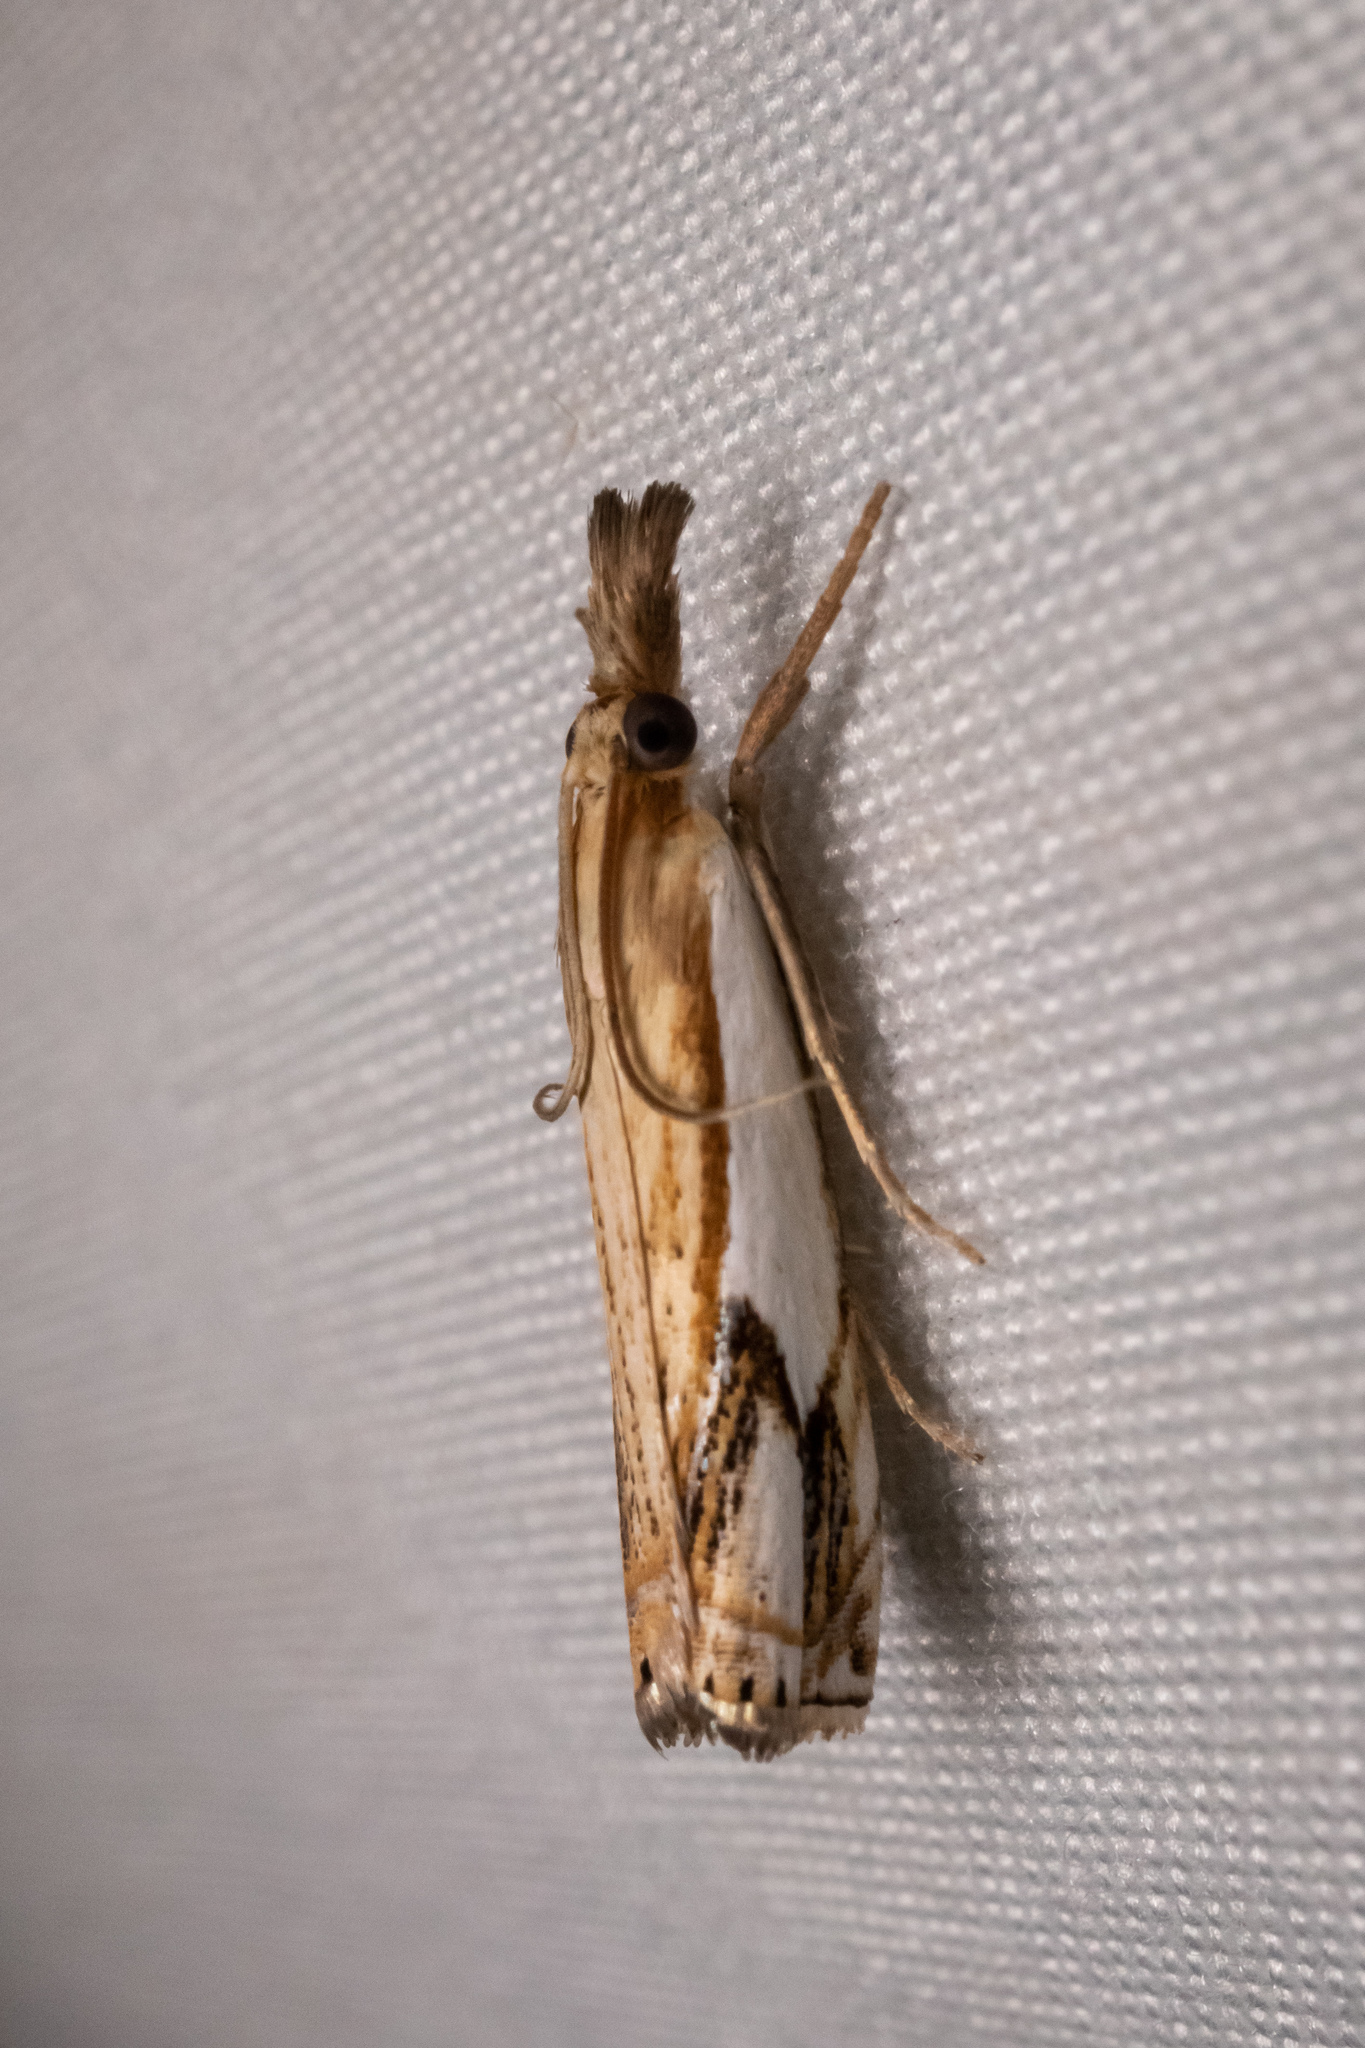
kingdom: Animalia
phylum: Arthropoda
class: Insecta
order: Lepidoptera
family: Crambidae
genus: Crambus
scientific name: Crambus agitatellus
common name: Double-banded grass-veneer
